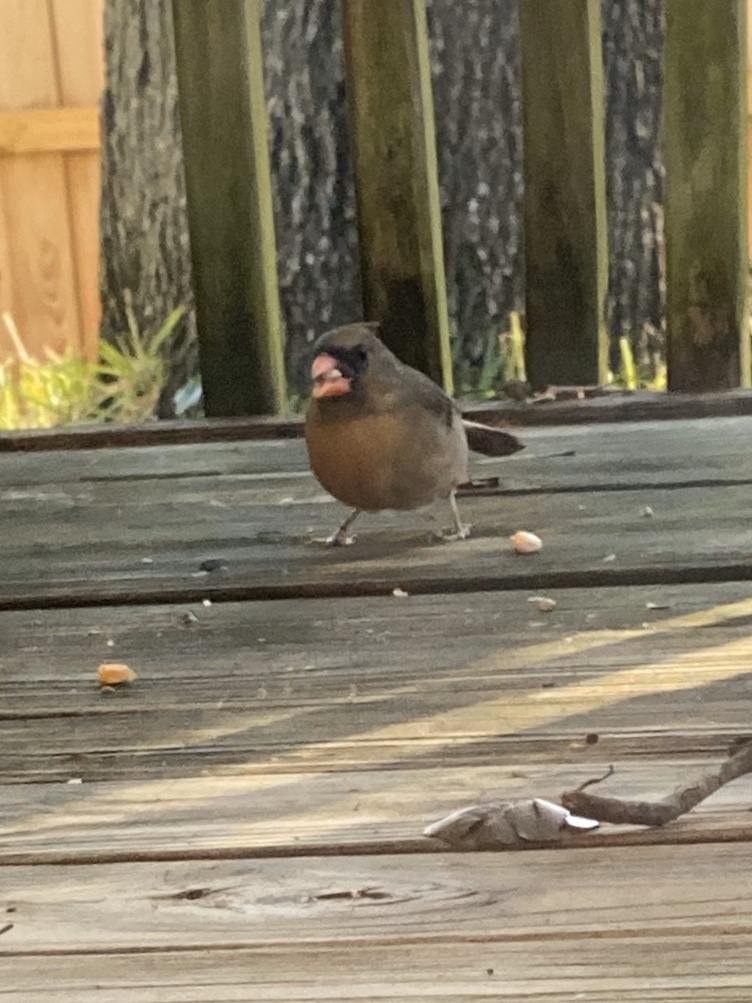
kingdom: Animalia
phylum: Chordata
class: Aves
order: Passeriformes
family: Cardinalidae
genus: Cardinalis
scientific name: Cardinalis cardinalis
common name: Northern cardinal
